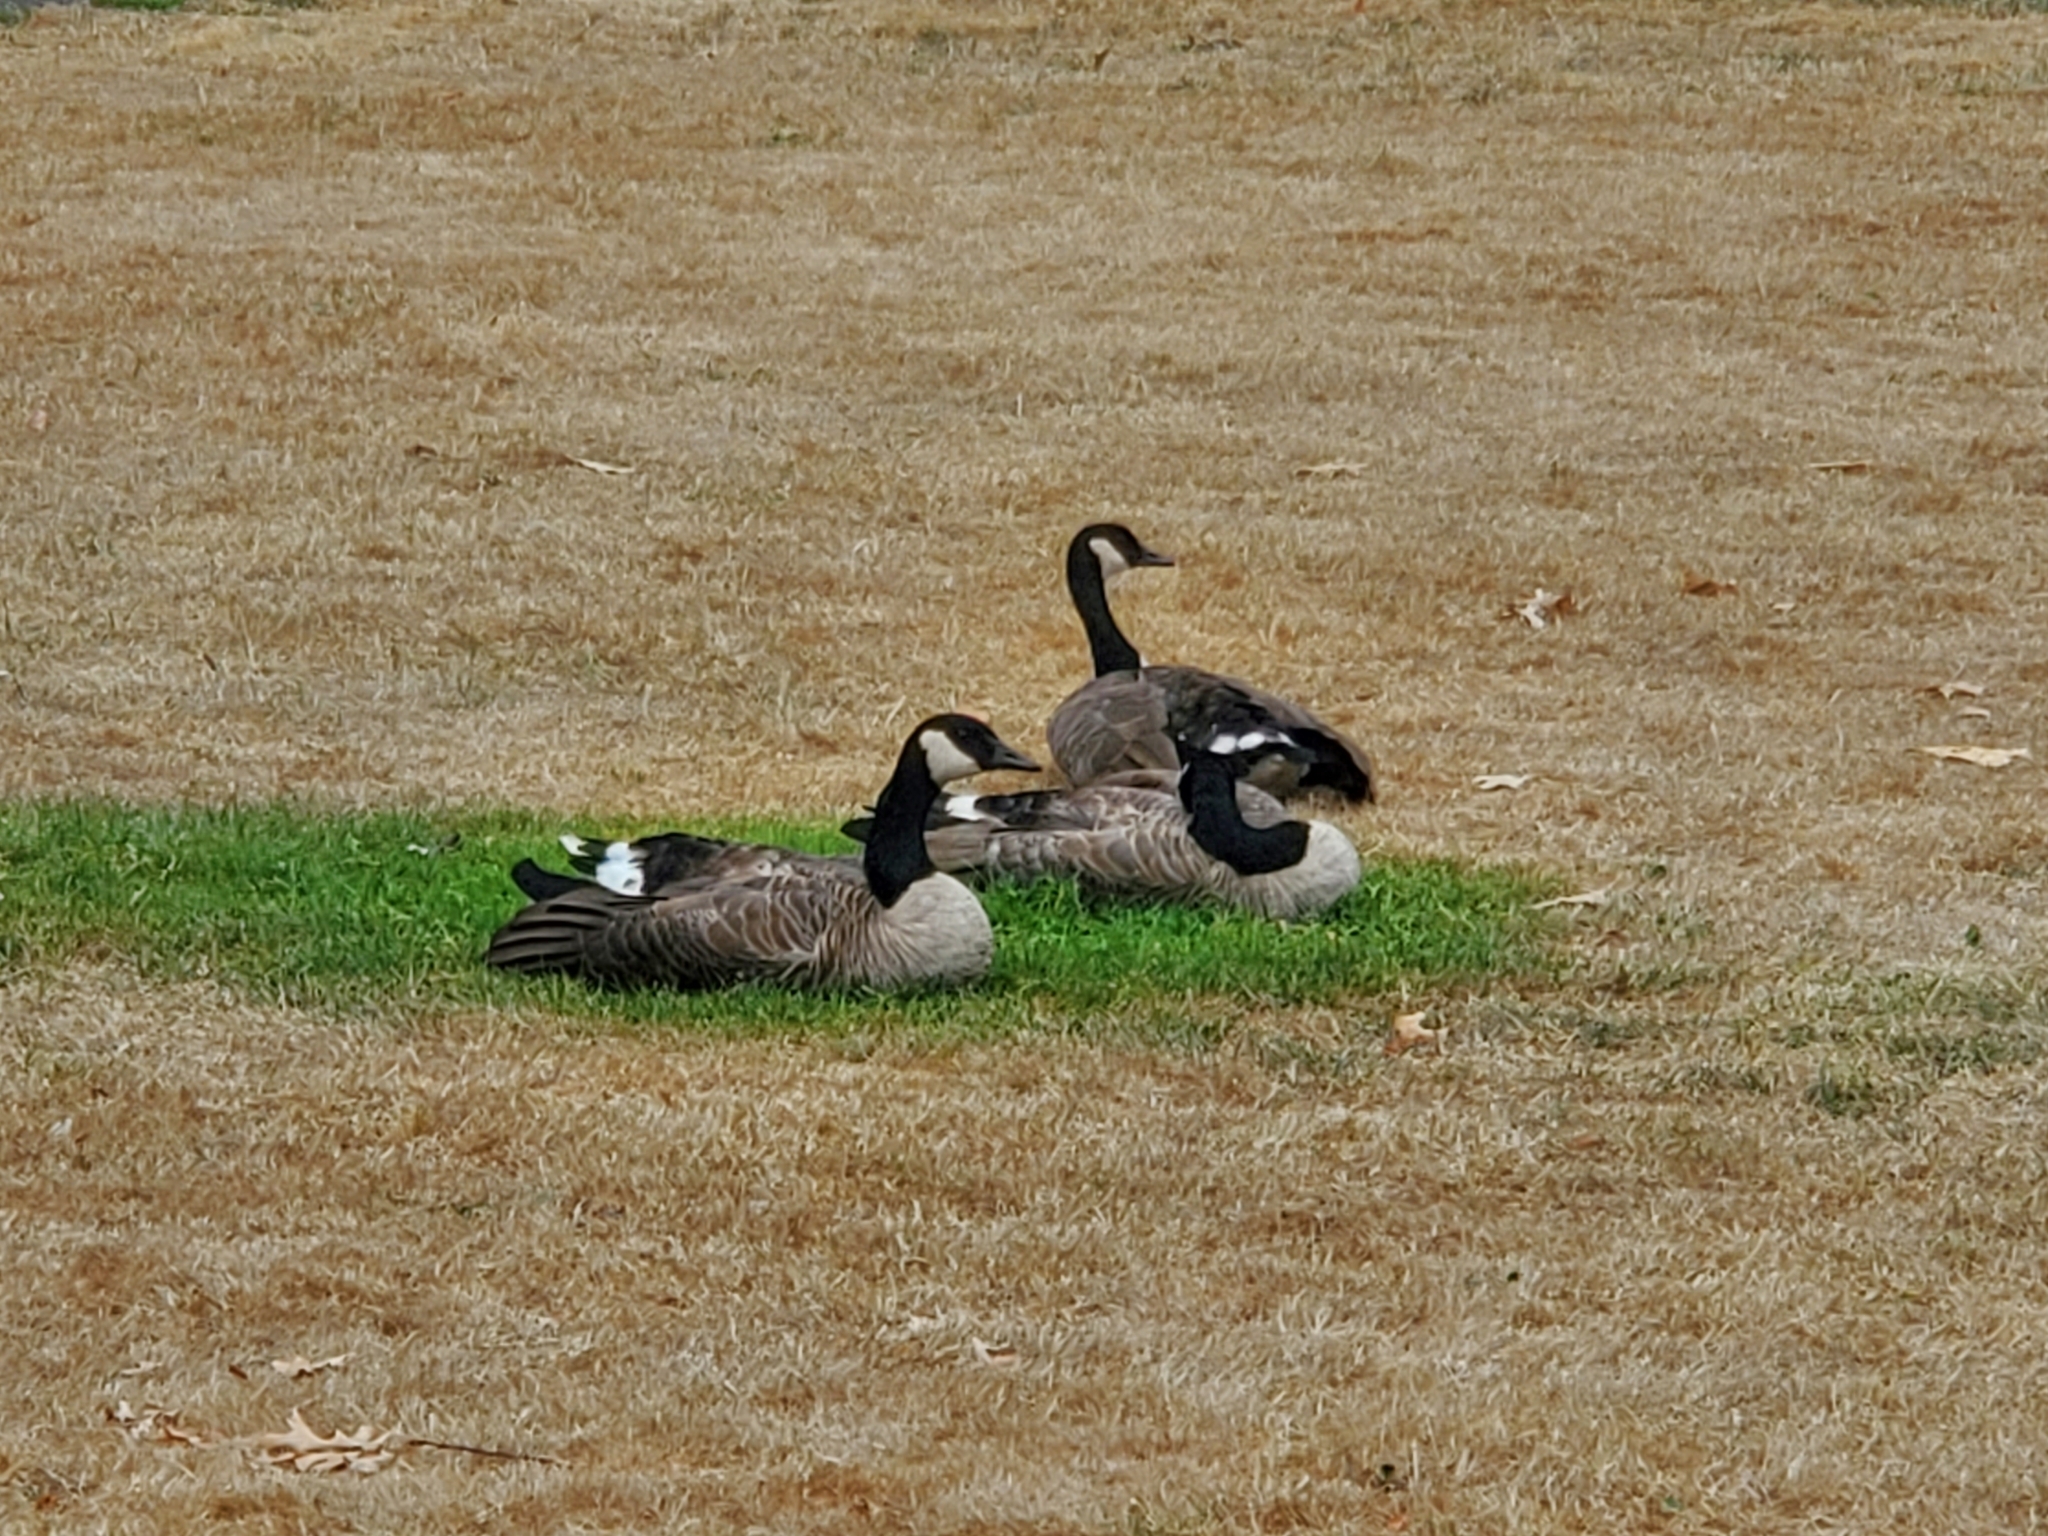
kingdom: Animalia
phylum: Chordata
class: Aves
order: Anseriformes
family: Anatidae
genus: Branta
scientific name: Branta canadensis
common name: Canada goose
